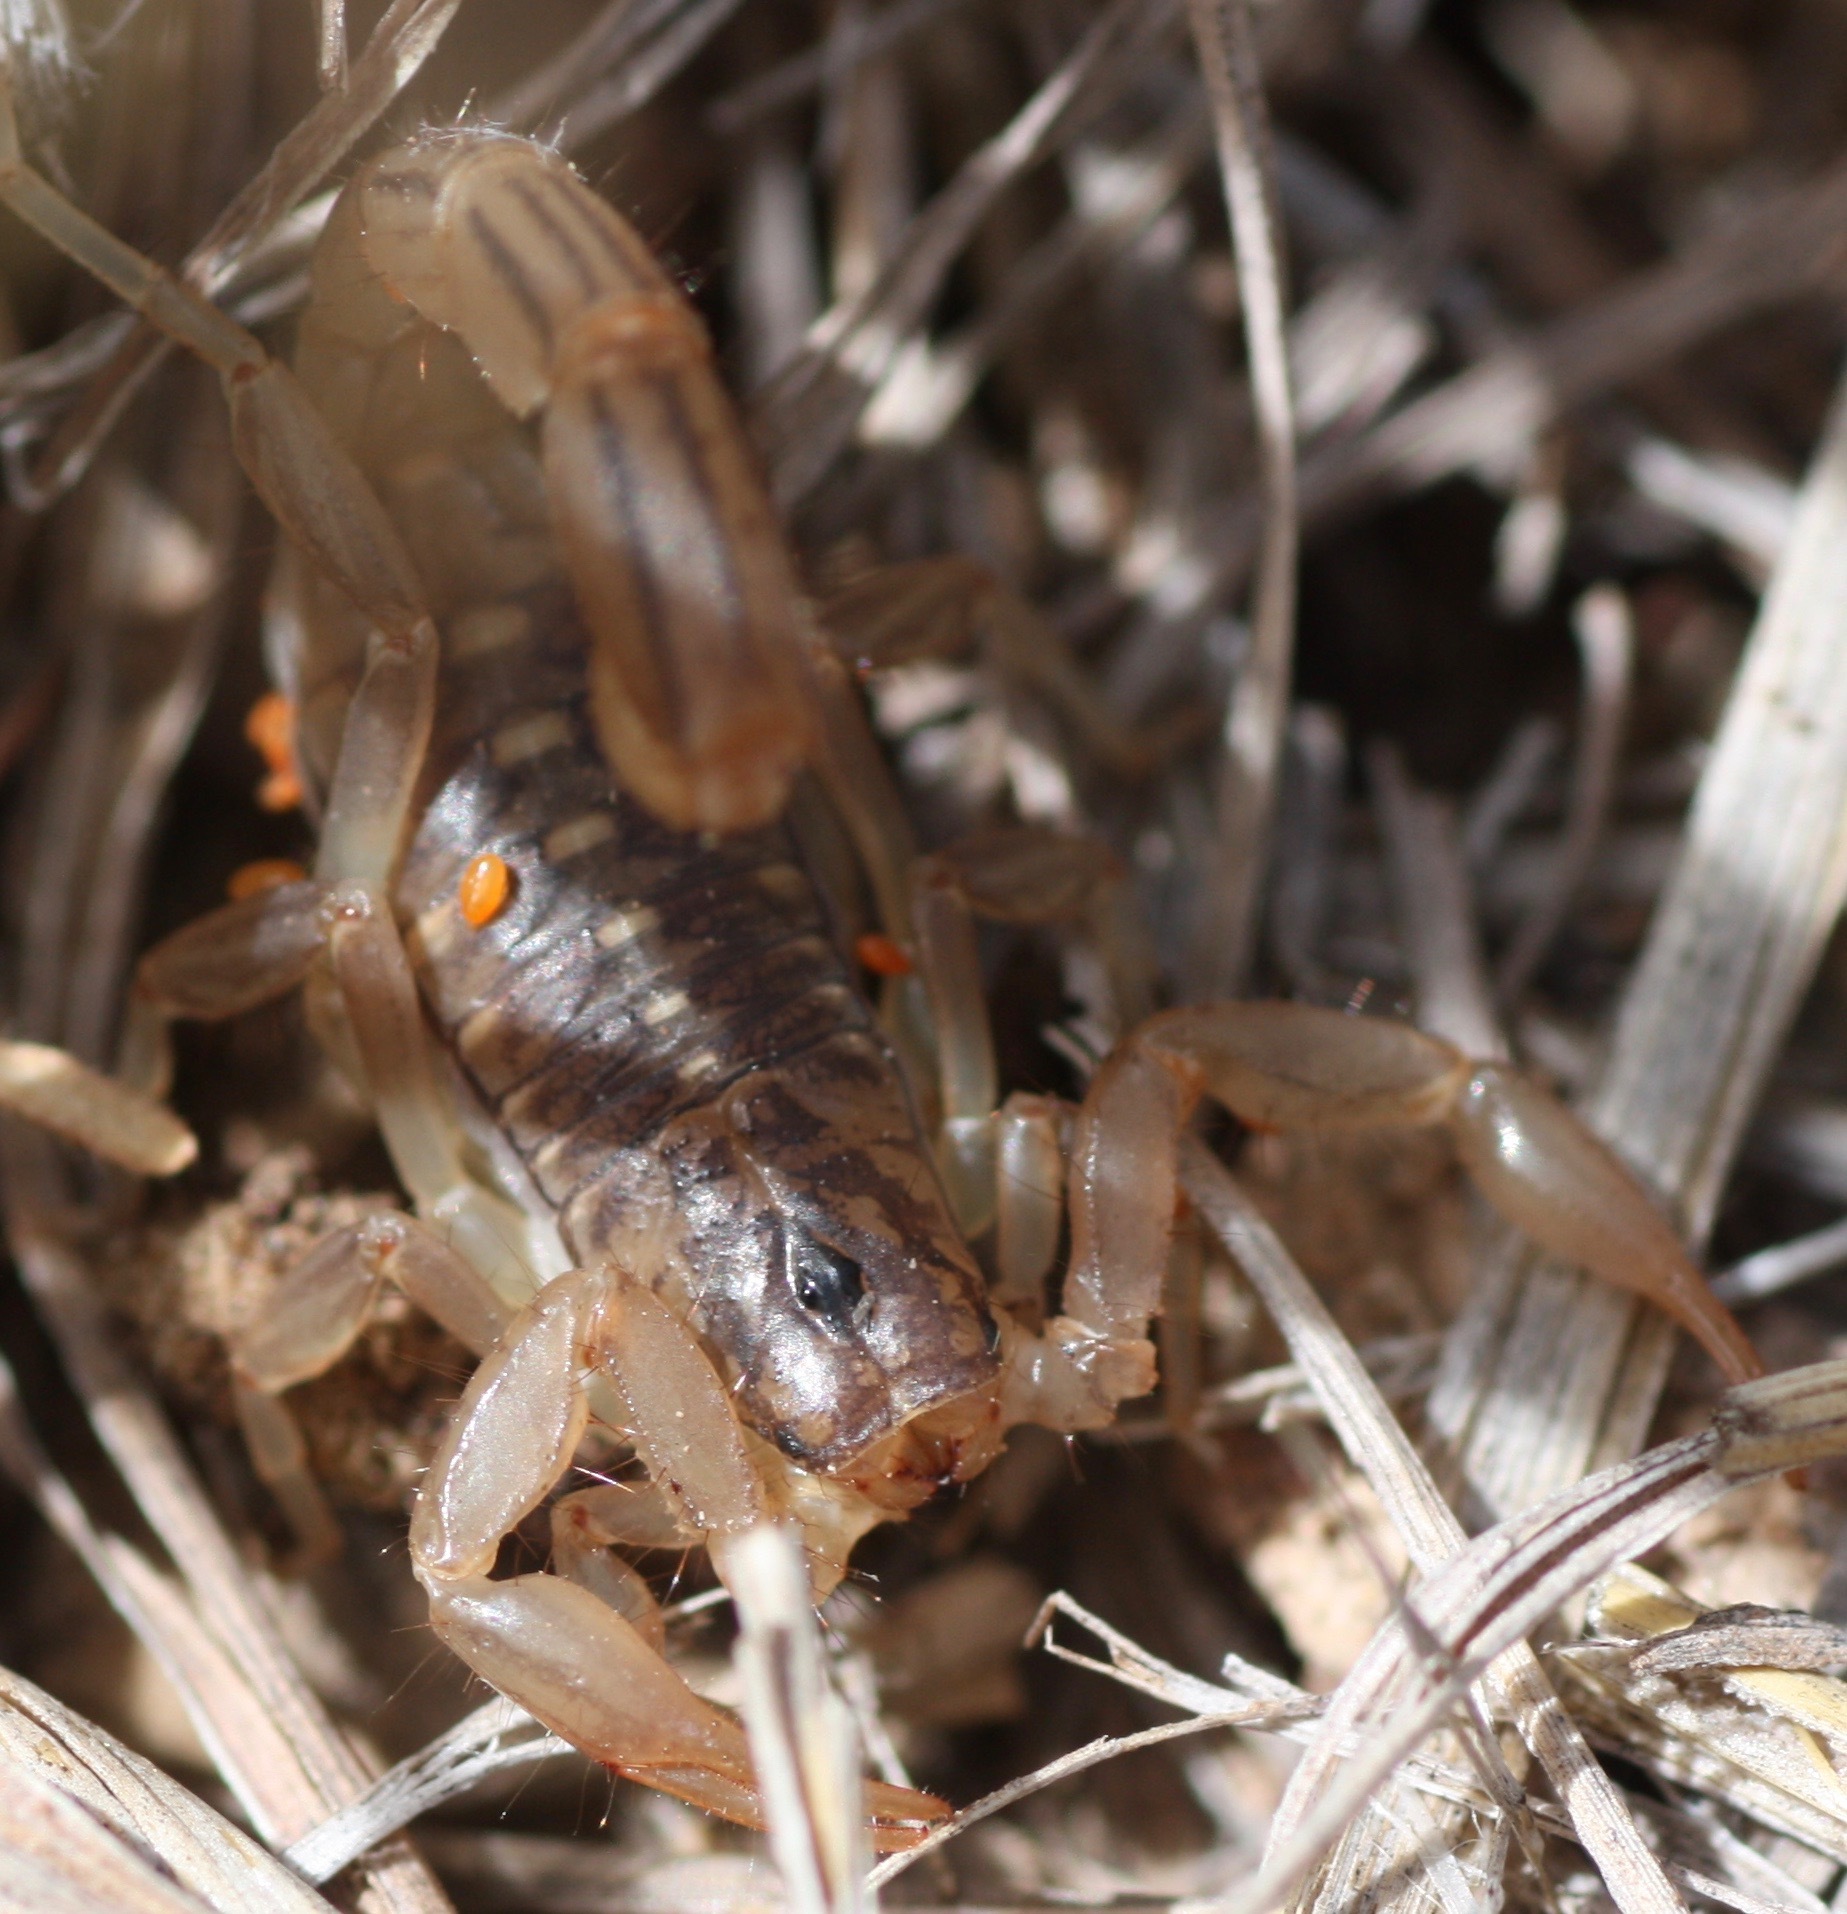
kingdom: Animalia
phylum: Arthropoda
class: Arachnida
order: Scorpiones
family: Vaejovidae
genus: Chihuahuanus
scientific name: Chihuahuanus coahuilae
